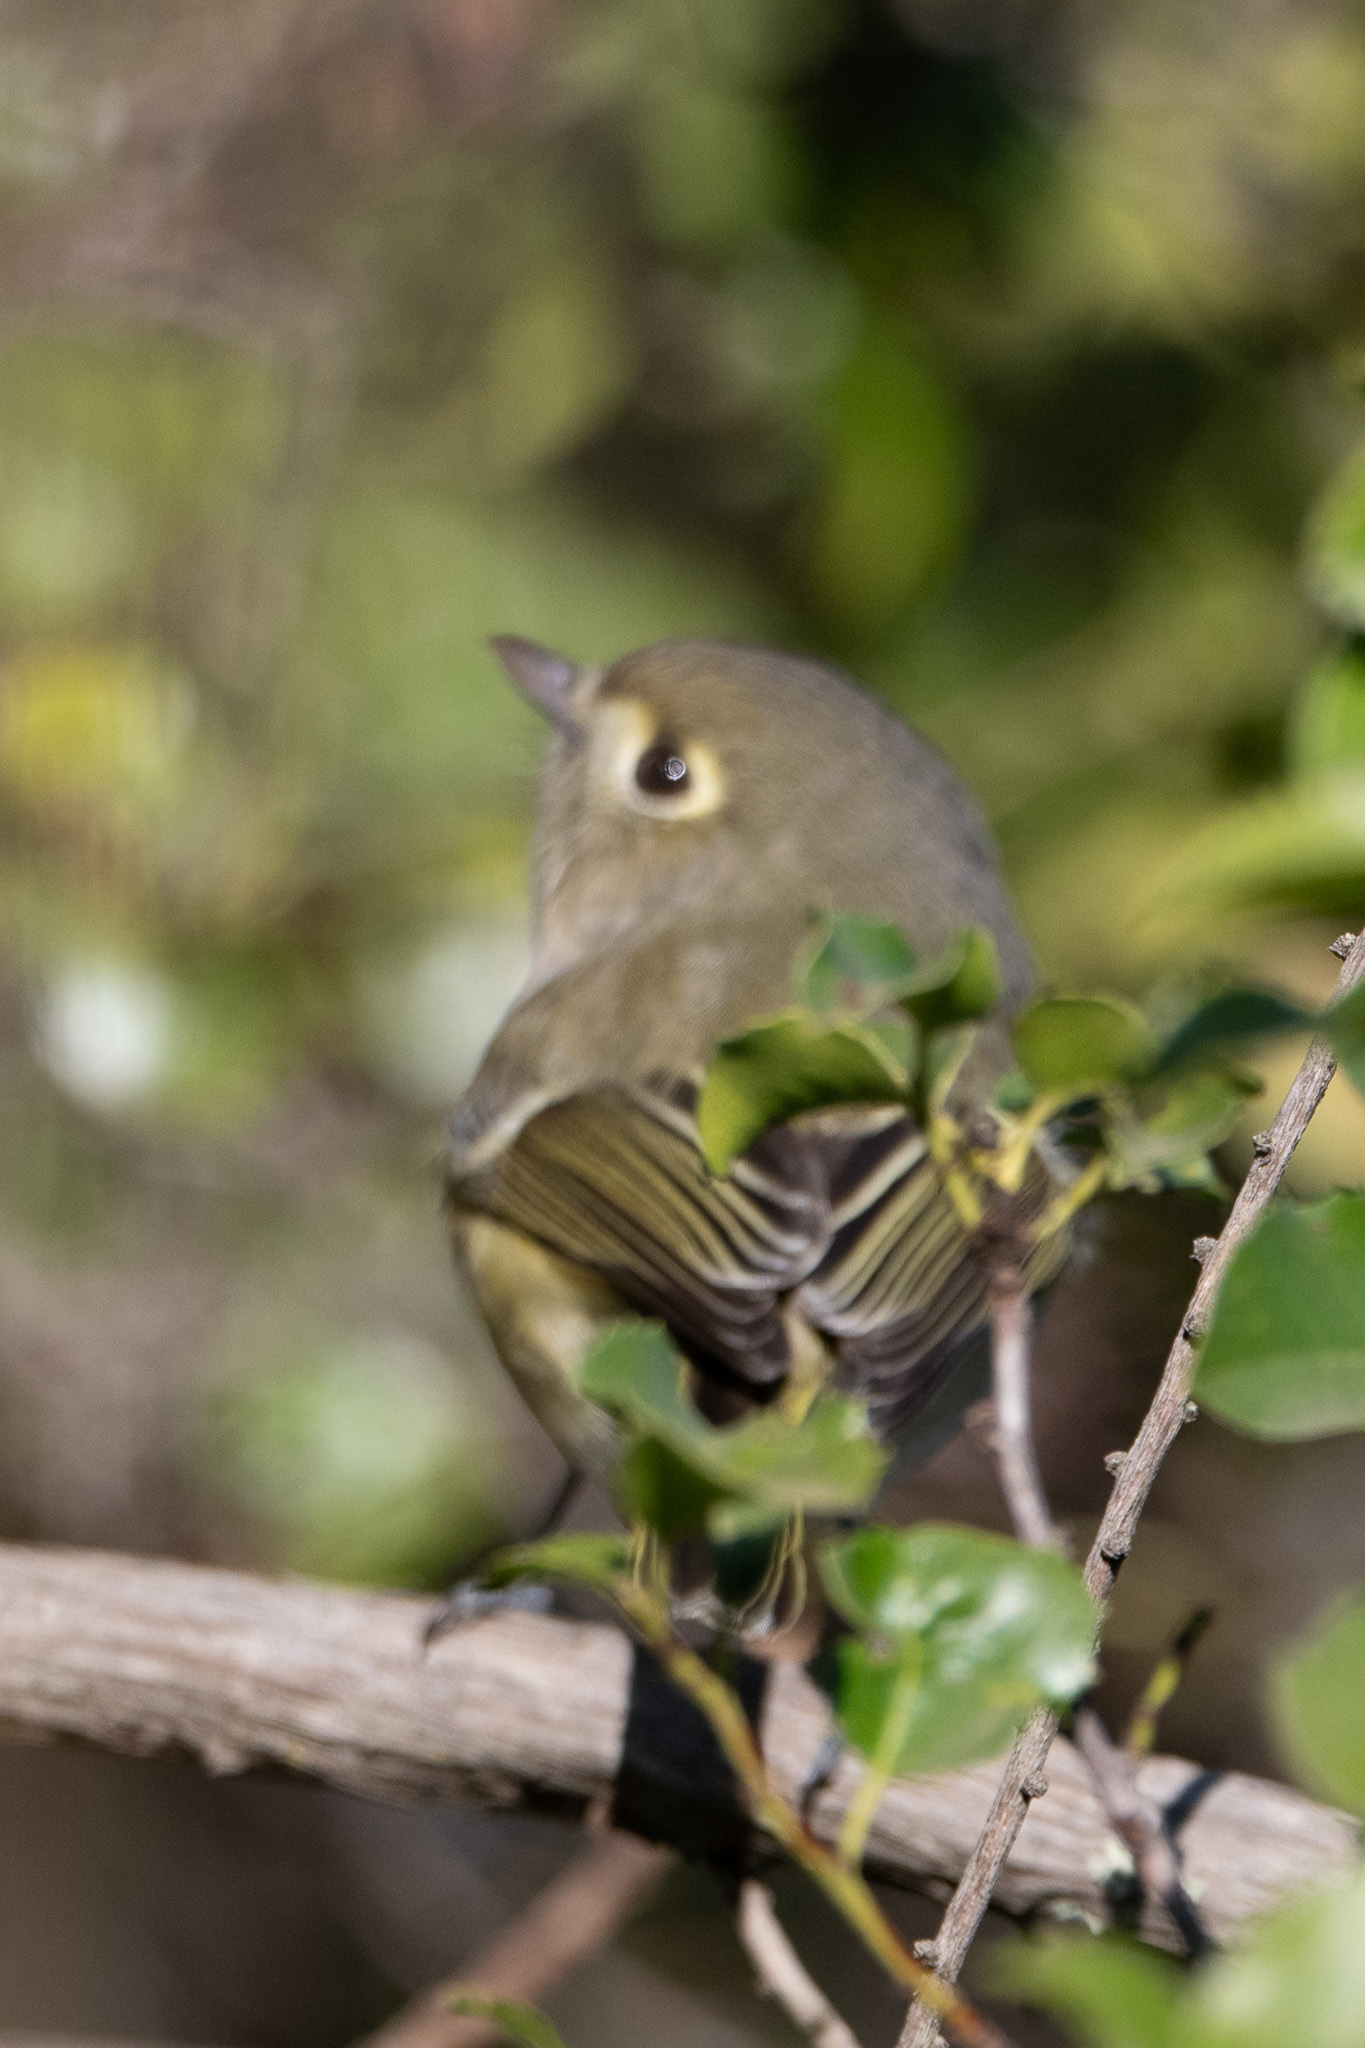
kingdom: Animalia
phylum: Chordata
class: Aves
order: Passeriformes
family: Vireonidae
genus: Vireo
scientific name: Vireo huttoni
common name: Hutton's vireo
